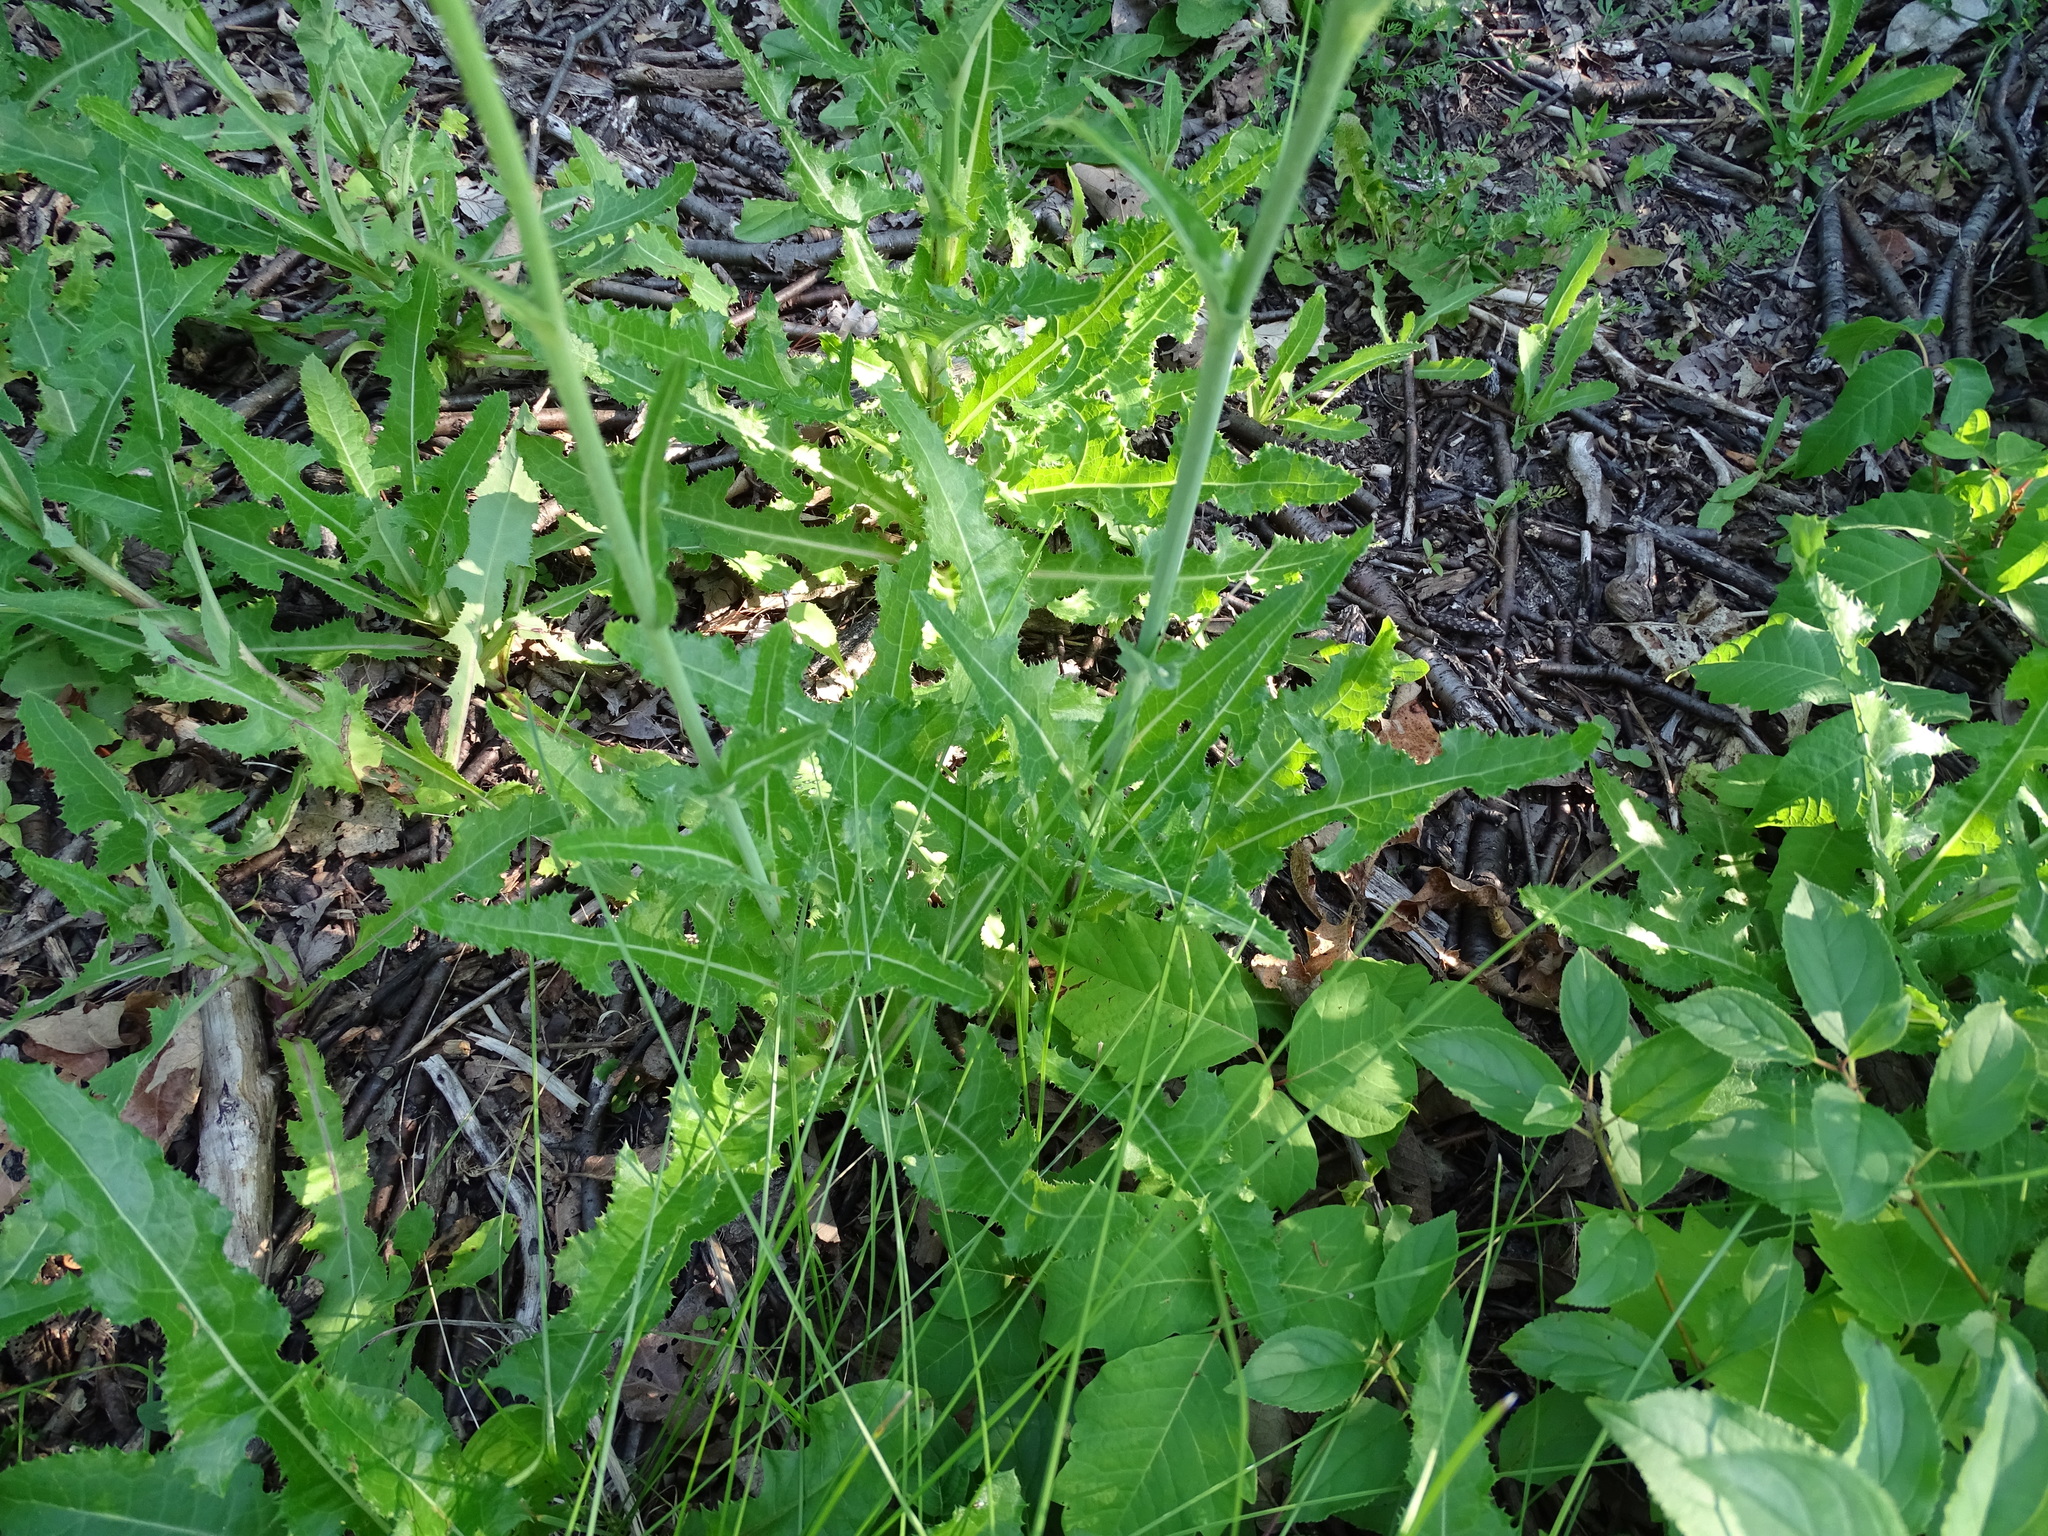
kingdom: Plantae
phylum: Tracheophyta
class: Magnoliopsida
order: Asterales
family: Asteraceae
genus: Sonchus
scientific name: Sonchus arvensis
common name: Perennial sow-thistle
